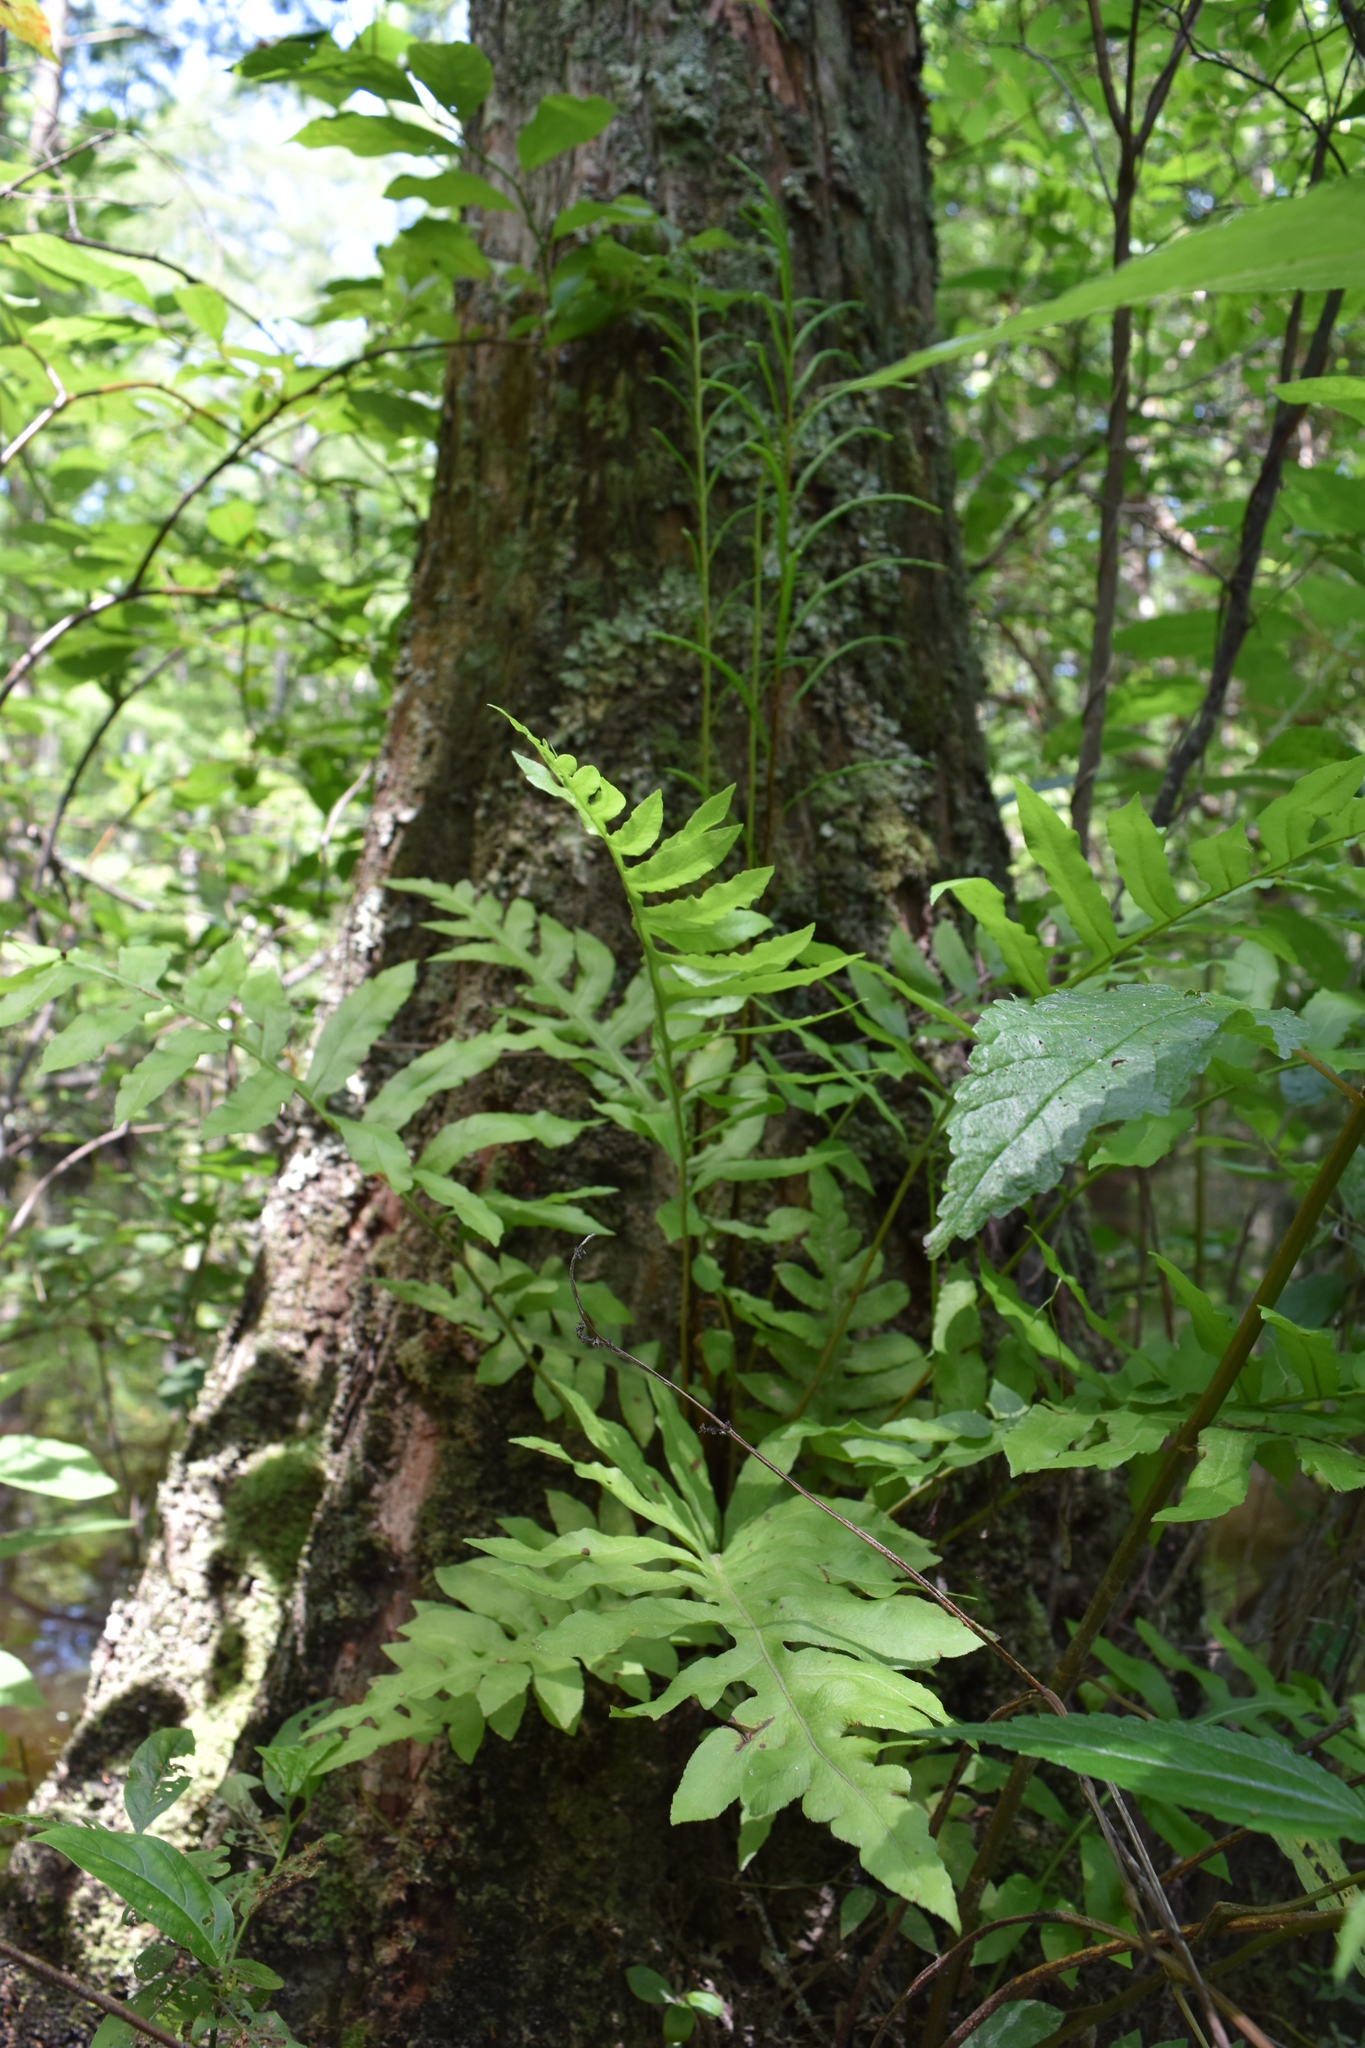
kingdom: Plantae
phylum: Tracheophyta
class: Polypodiopsida
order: Polypodiales
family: Blechnaceae
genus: Lorinseria
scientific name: Lorinseria areolata
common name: Dwarf chain fern
